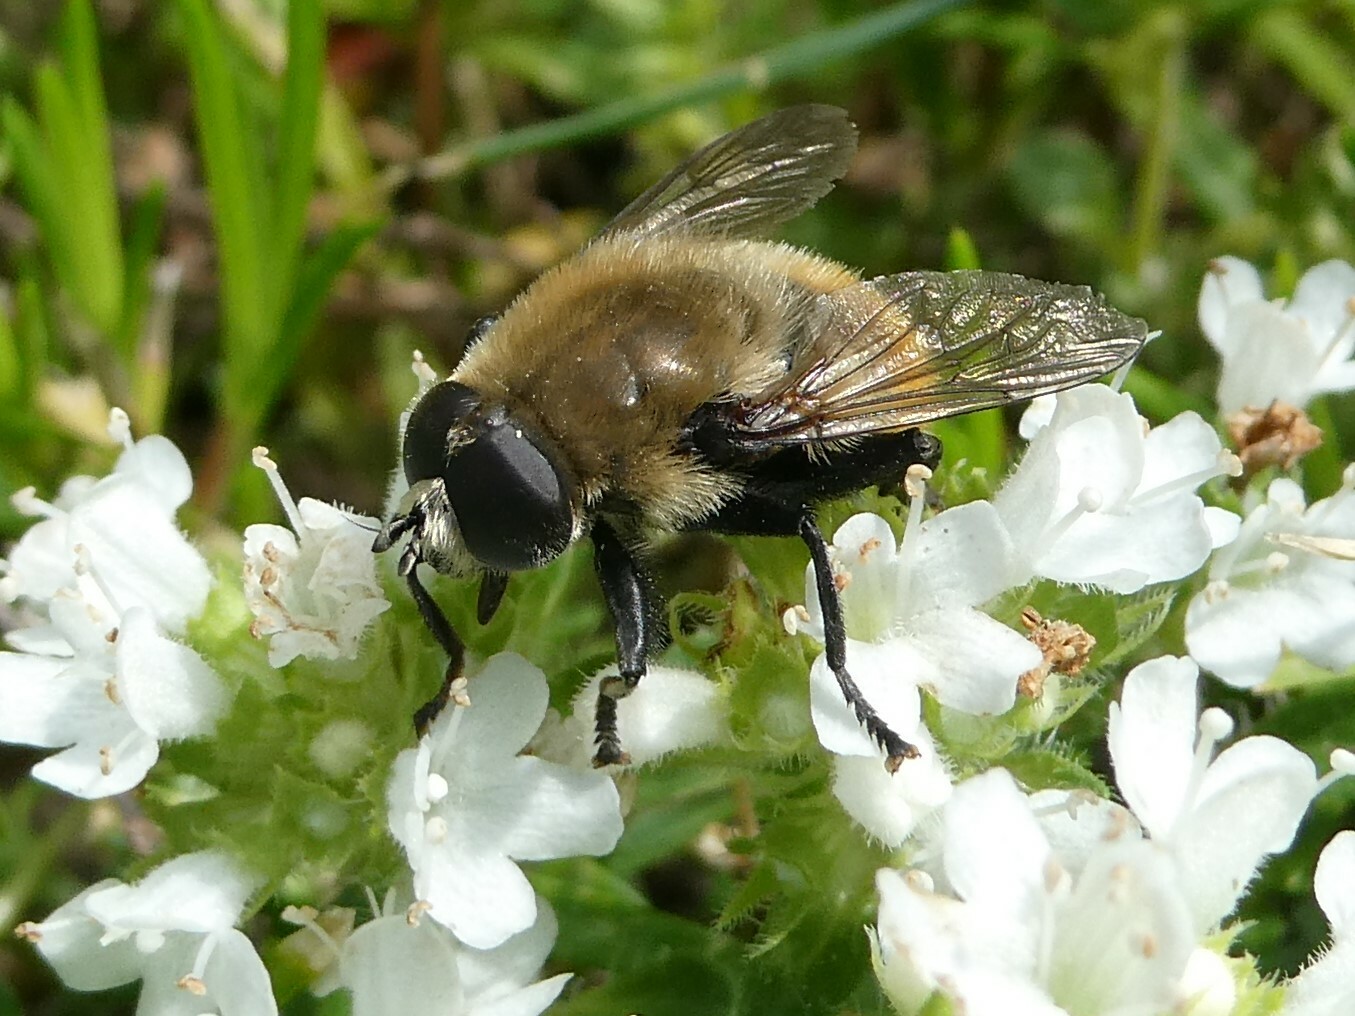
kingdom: Animalia
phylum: Arthropoda
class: Insecta
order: Diptera
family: Syrphidae
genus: Merodon
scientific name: Merodon equestris
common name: Greater bulb-fly
